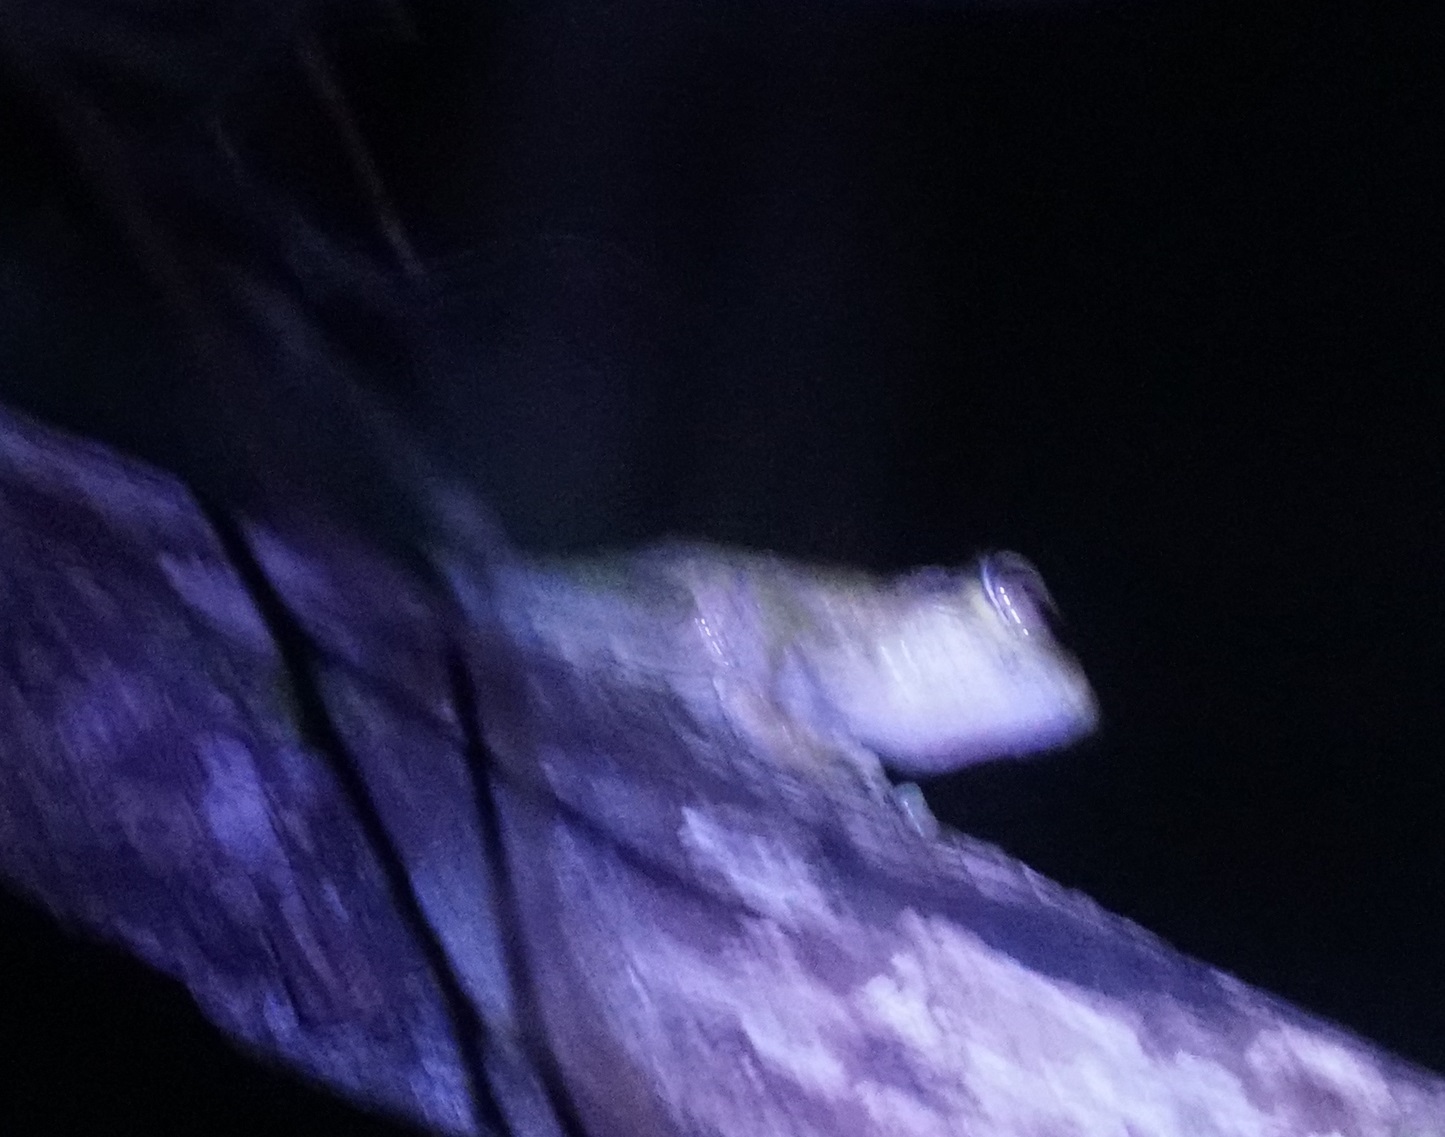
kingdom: Animalia
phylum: Chordata
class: Amphibia
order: Anura
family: Hylidae
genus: Ranoidea
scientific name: Ranoidea
